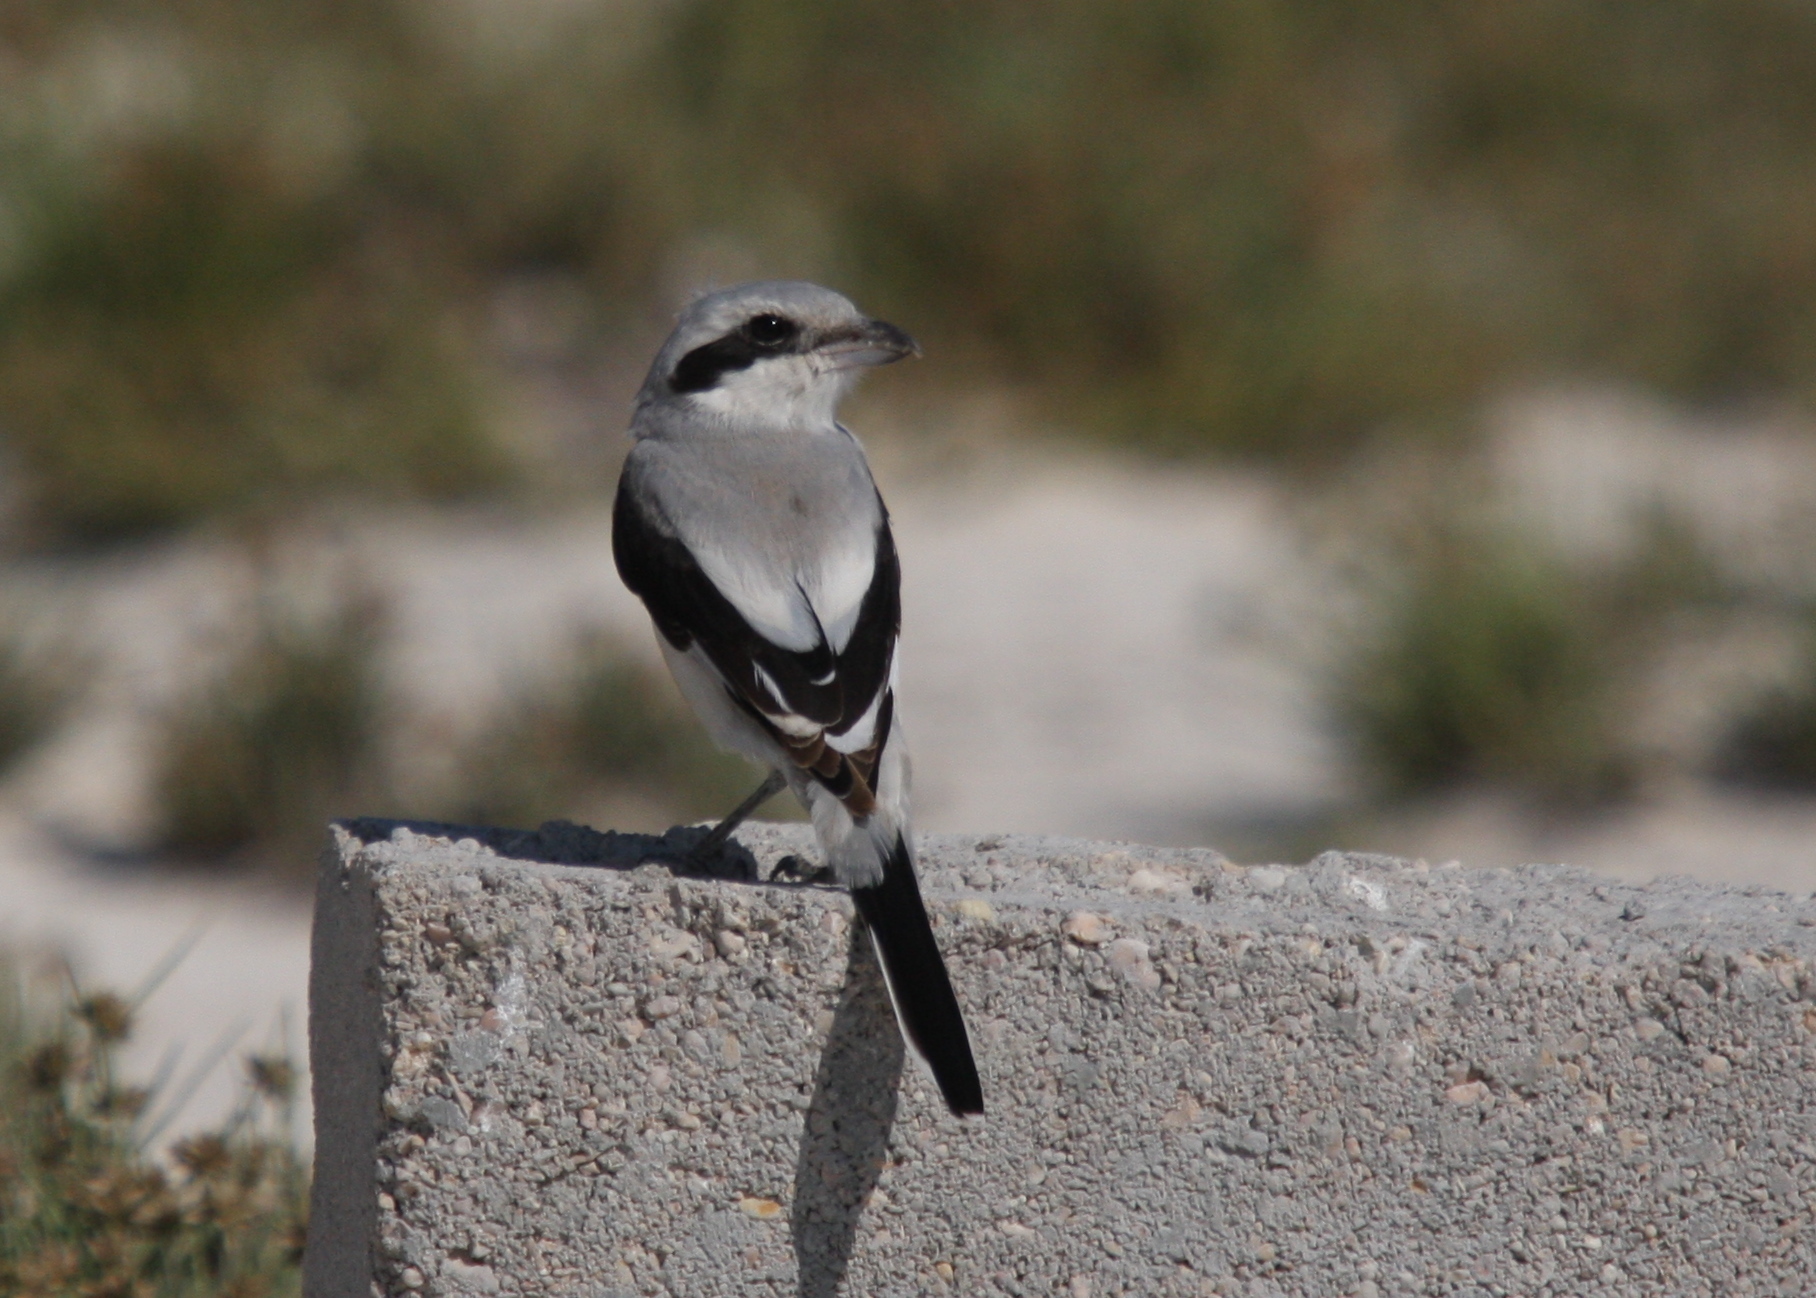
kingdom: Animalia
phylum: Chordata
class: Aves
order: Passeriformes
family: Laniidae
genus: Lanius
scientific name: Lanius excubitor
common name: Great grey shrike
